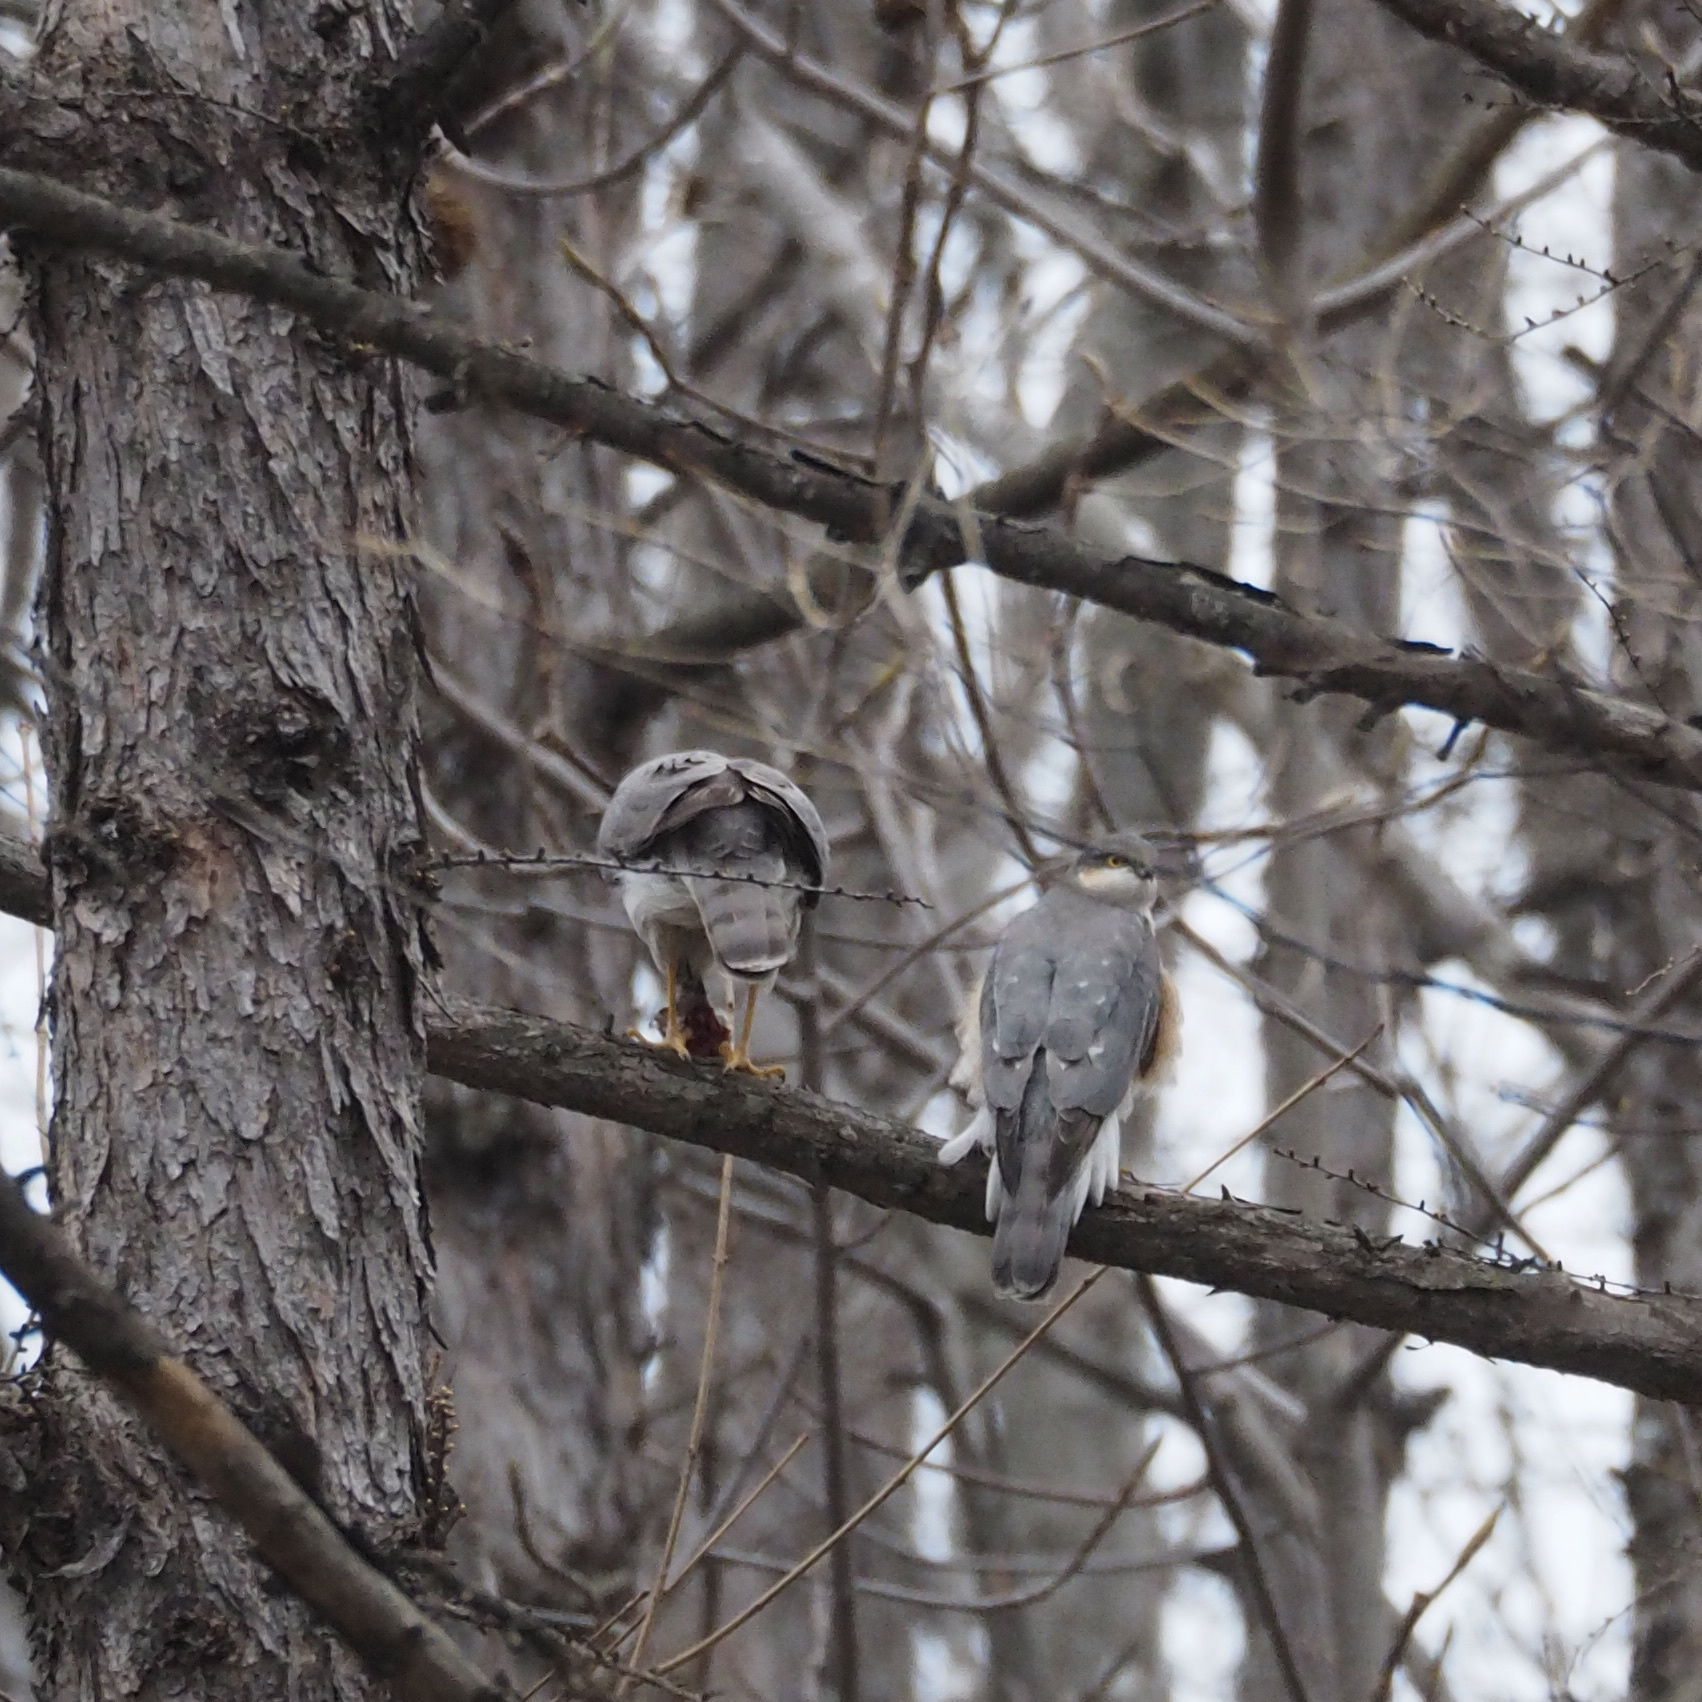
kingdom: Animalia
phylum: Chordata
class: Aves
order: Accipitriformes
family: Accipitridae
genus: Accipiter
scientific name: Accipiter nisus
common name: Eurasian sparrowhawk
